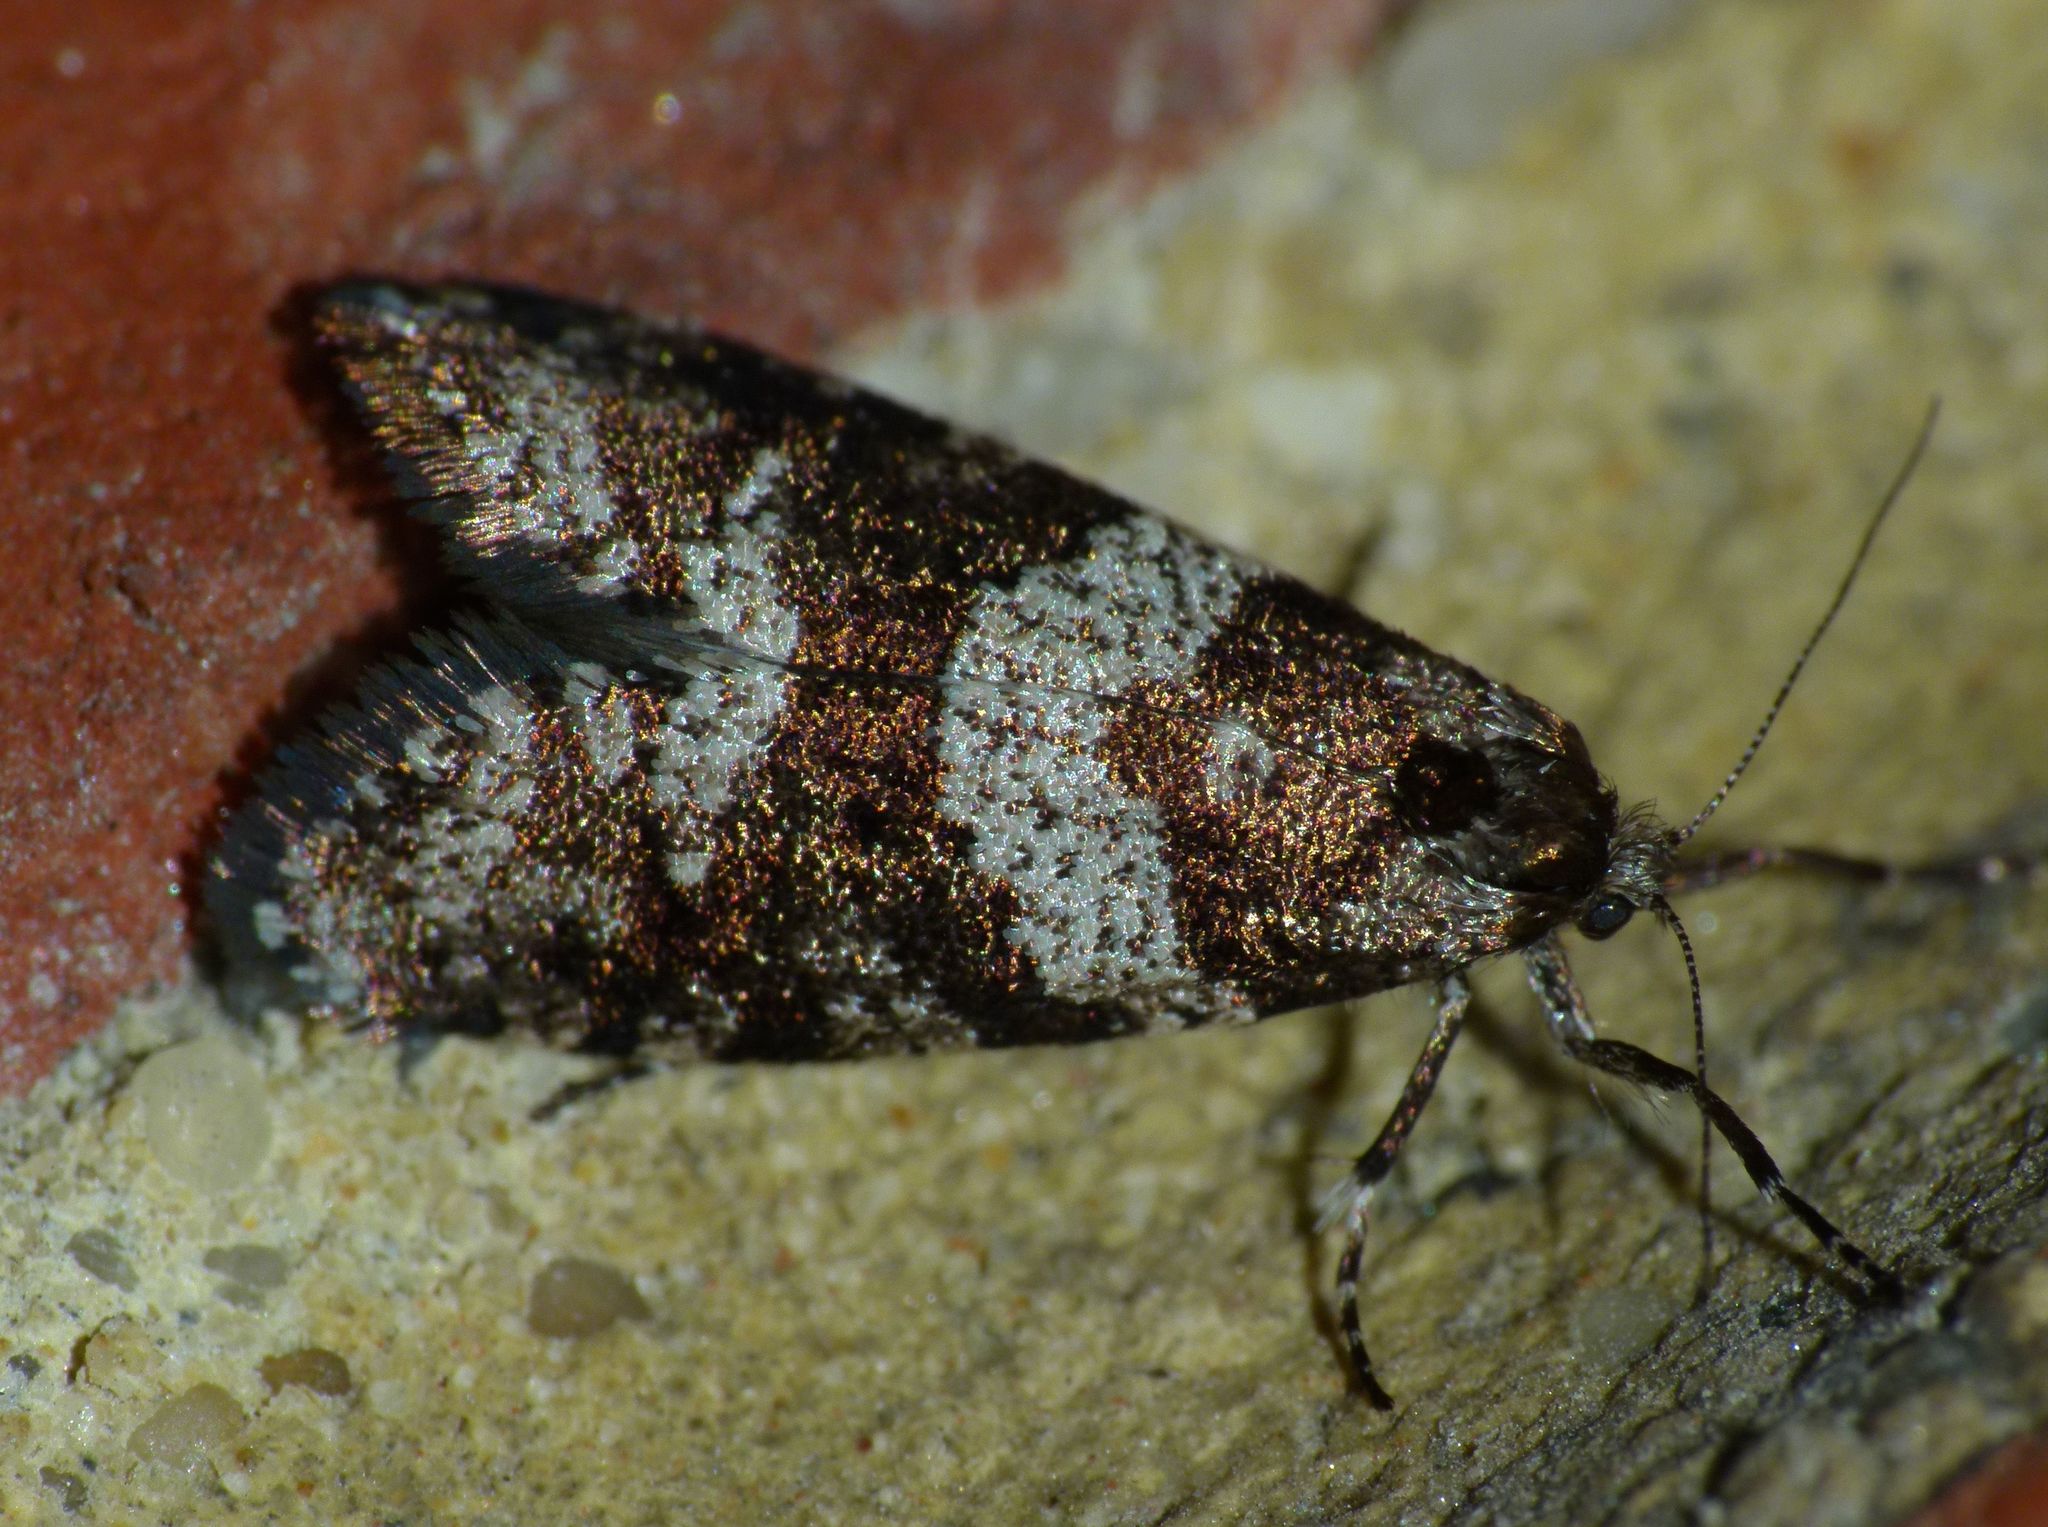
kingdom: Animalia
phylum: Arthropoda
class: Insecta
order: Lepidoptera
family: Psychidae
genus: Lepidoscia
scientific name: Lepidoscia heliochares
